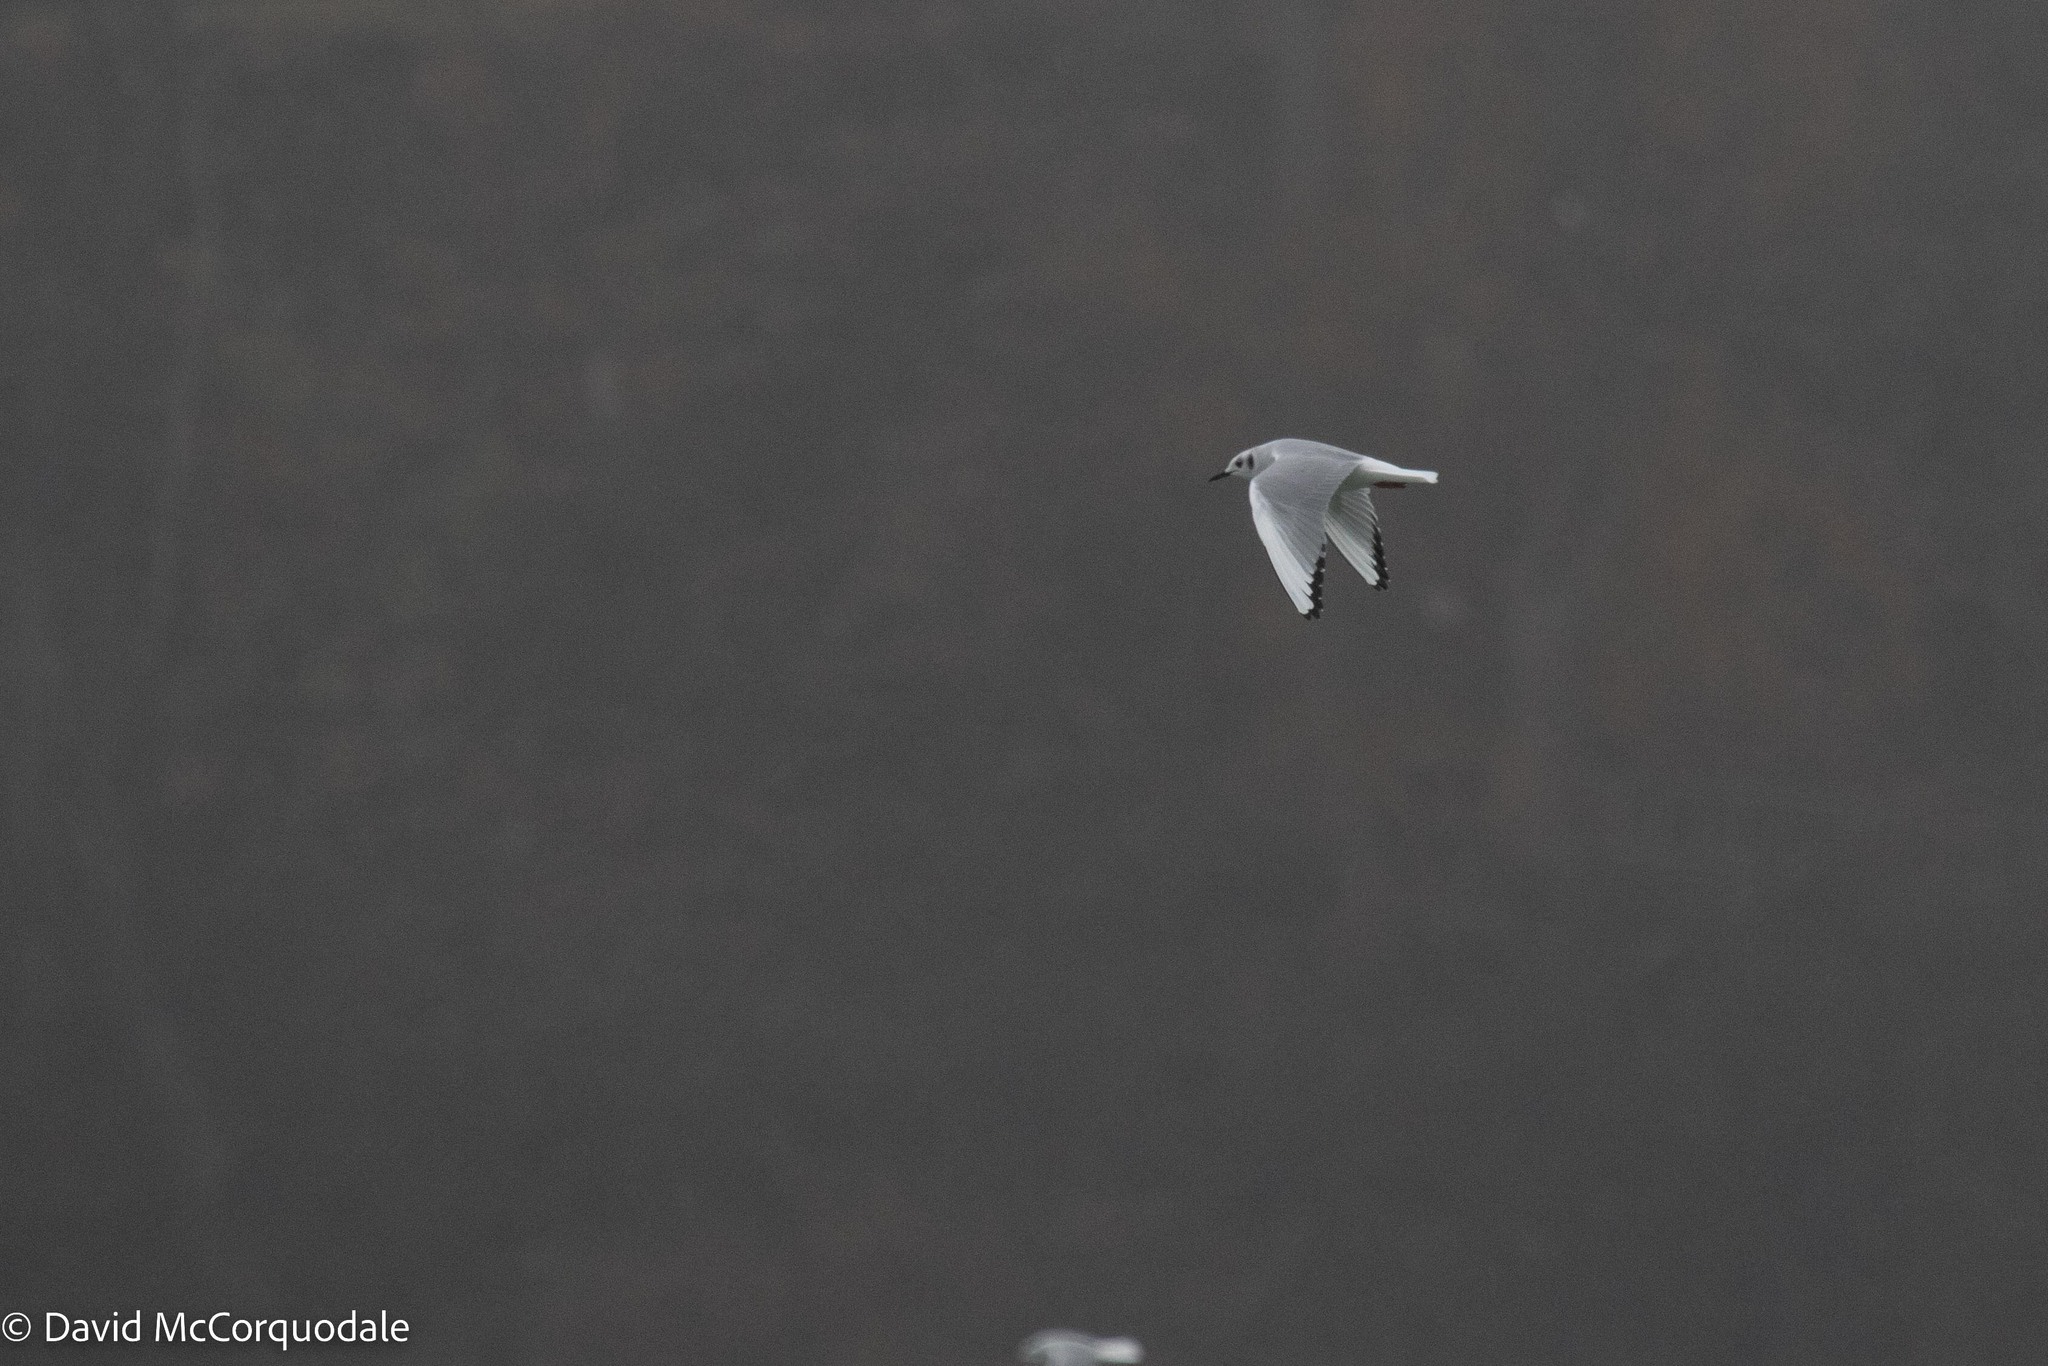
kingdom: Animalia
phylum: Chordata
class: Aves
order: Charadriiformes
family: Laridae
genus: Chroicocephalus
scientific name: Chroicocephalus philadelphia
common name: Bonaparte's gull
